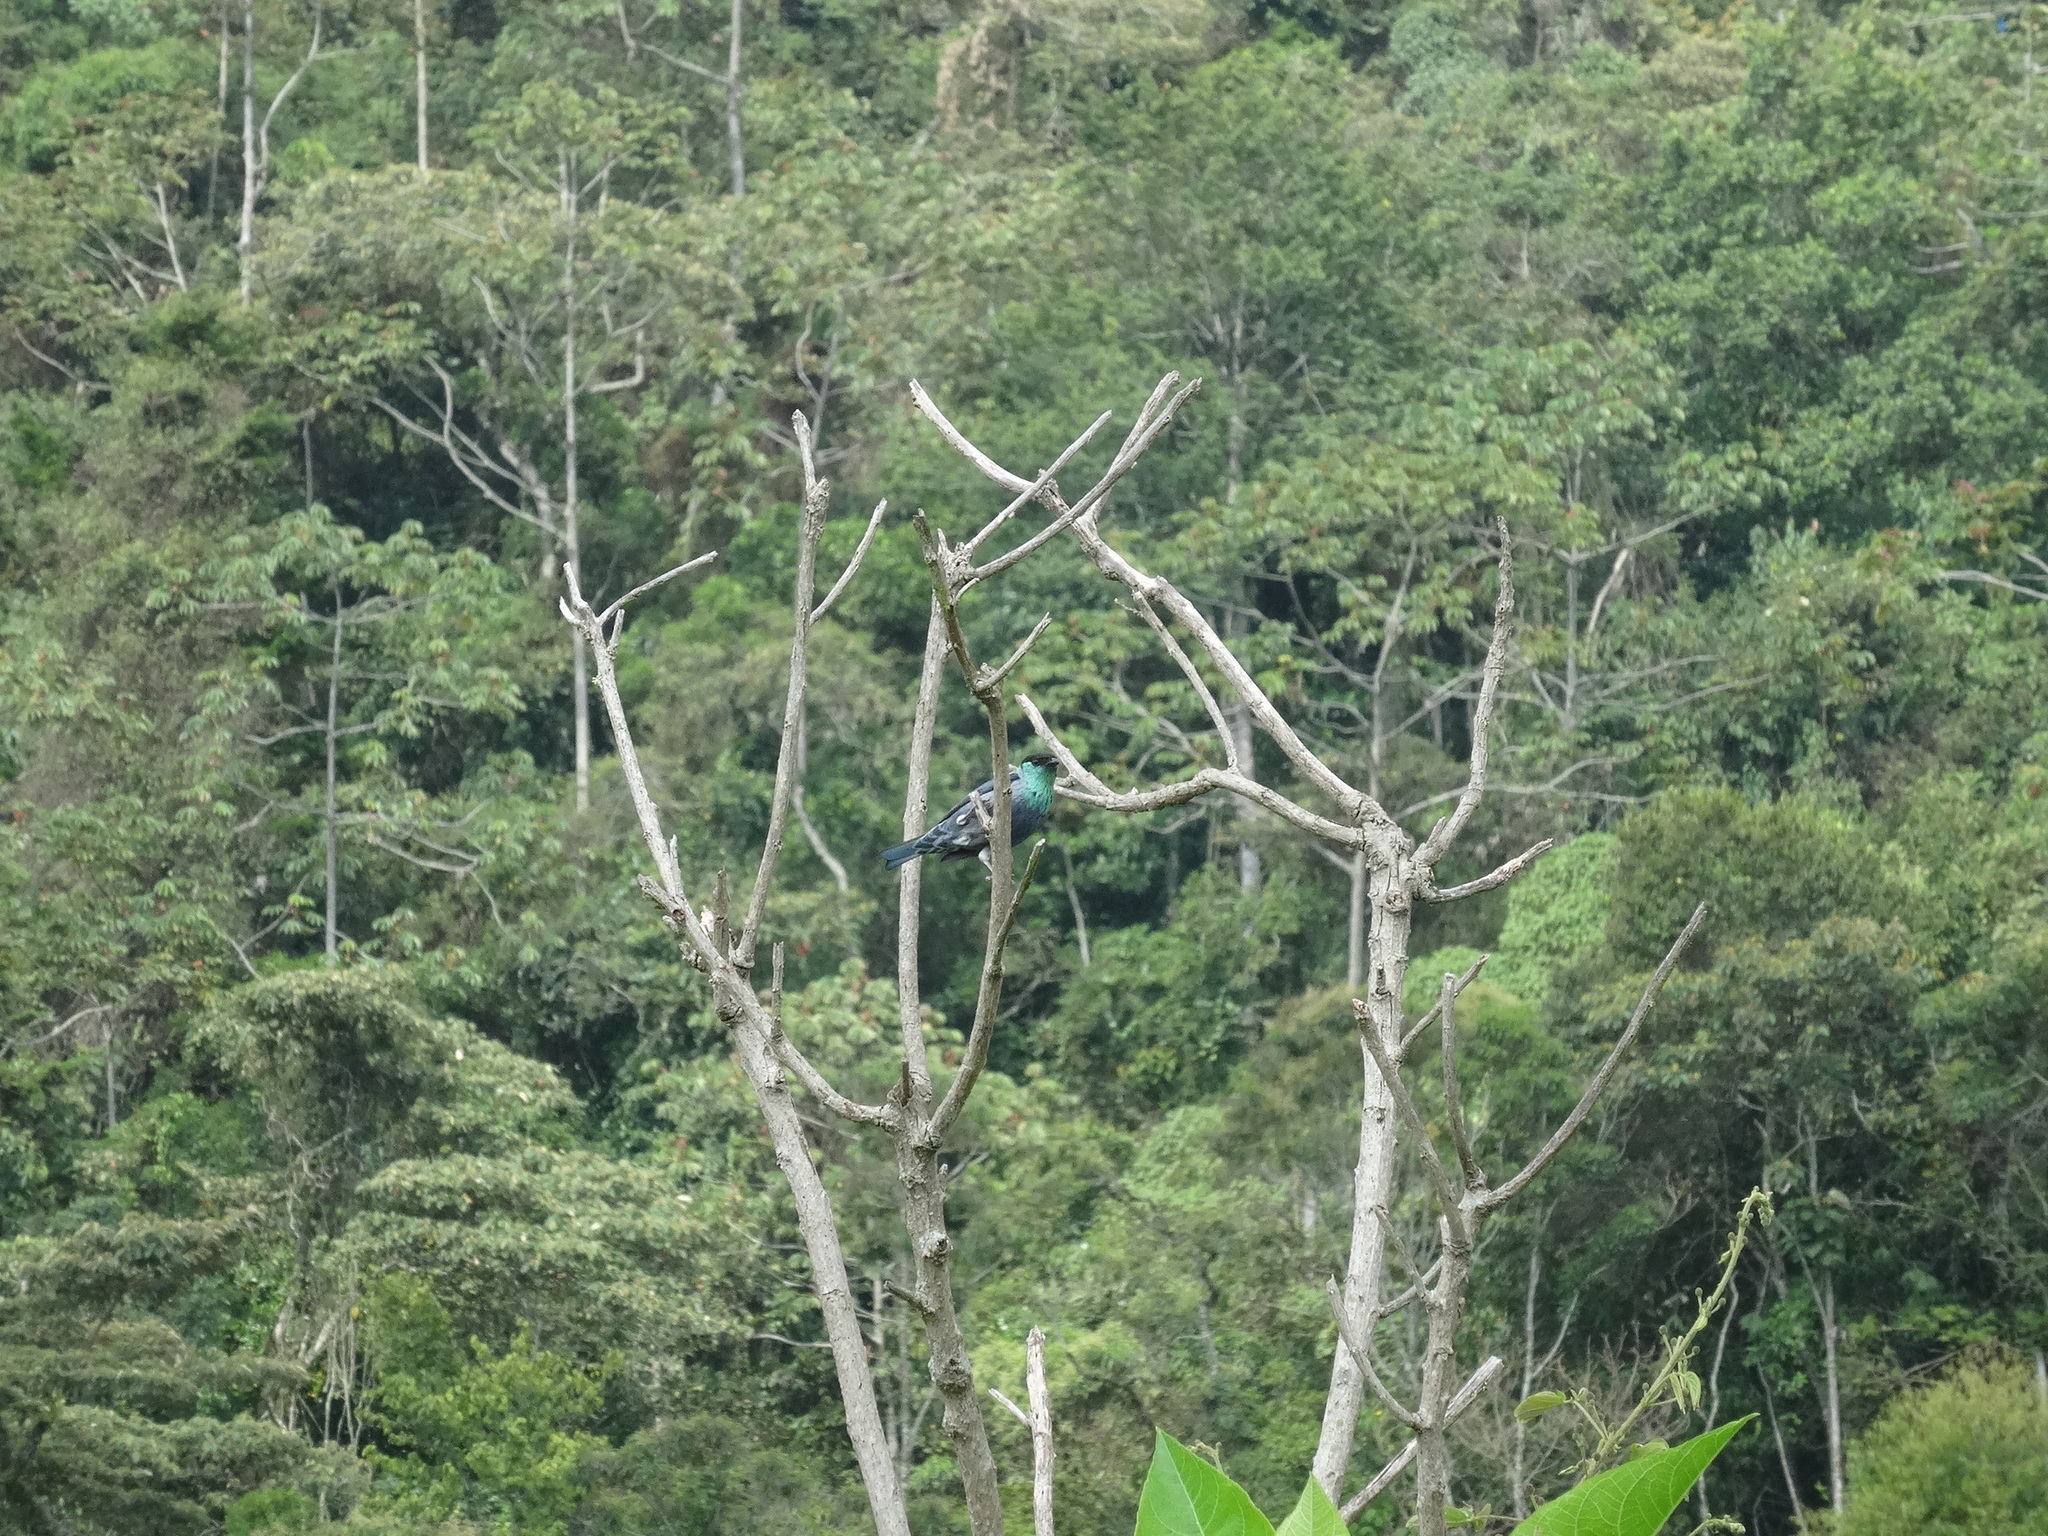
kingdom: Animalia
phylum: Chordata
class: Aves
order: Passeriformes
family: Thraupidae
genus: Stilpnia
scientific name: Stilpnia heinei
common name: Black-capped tanager
